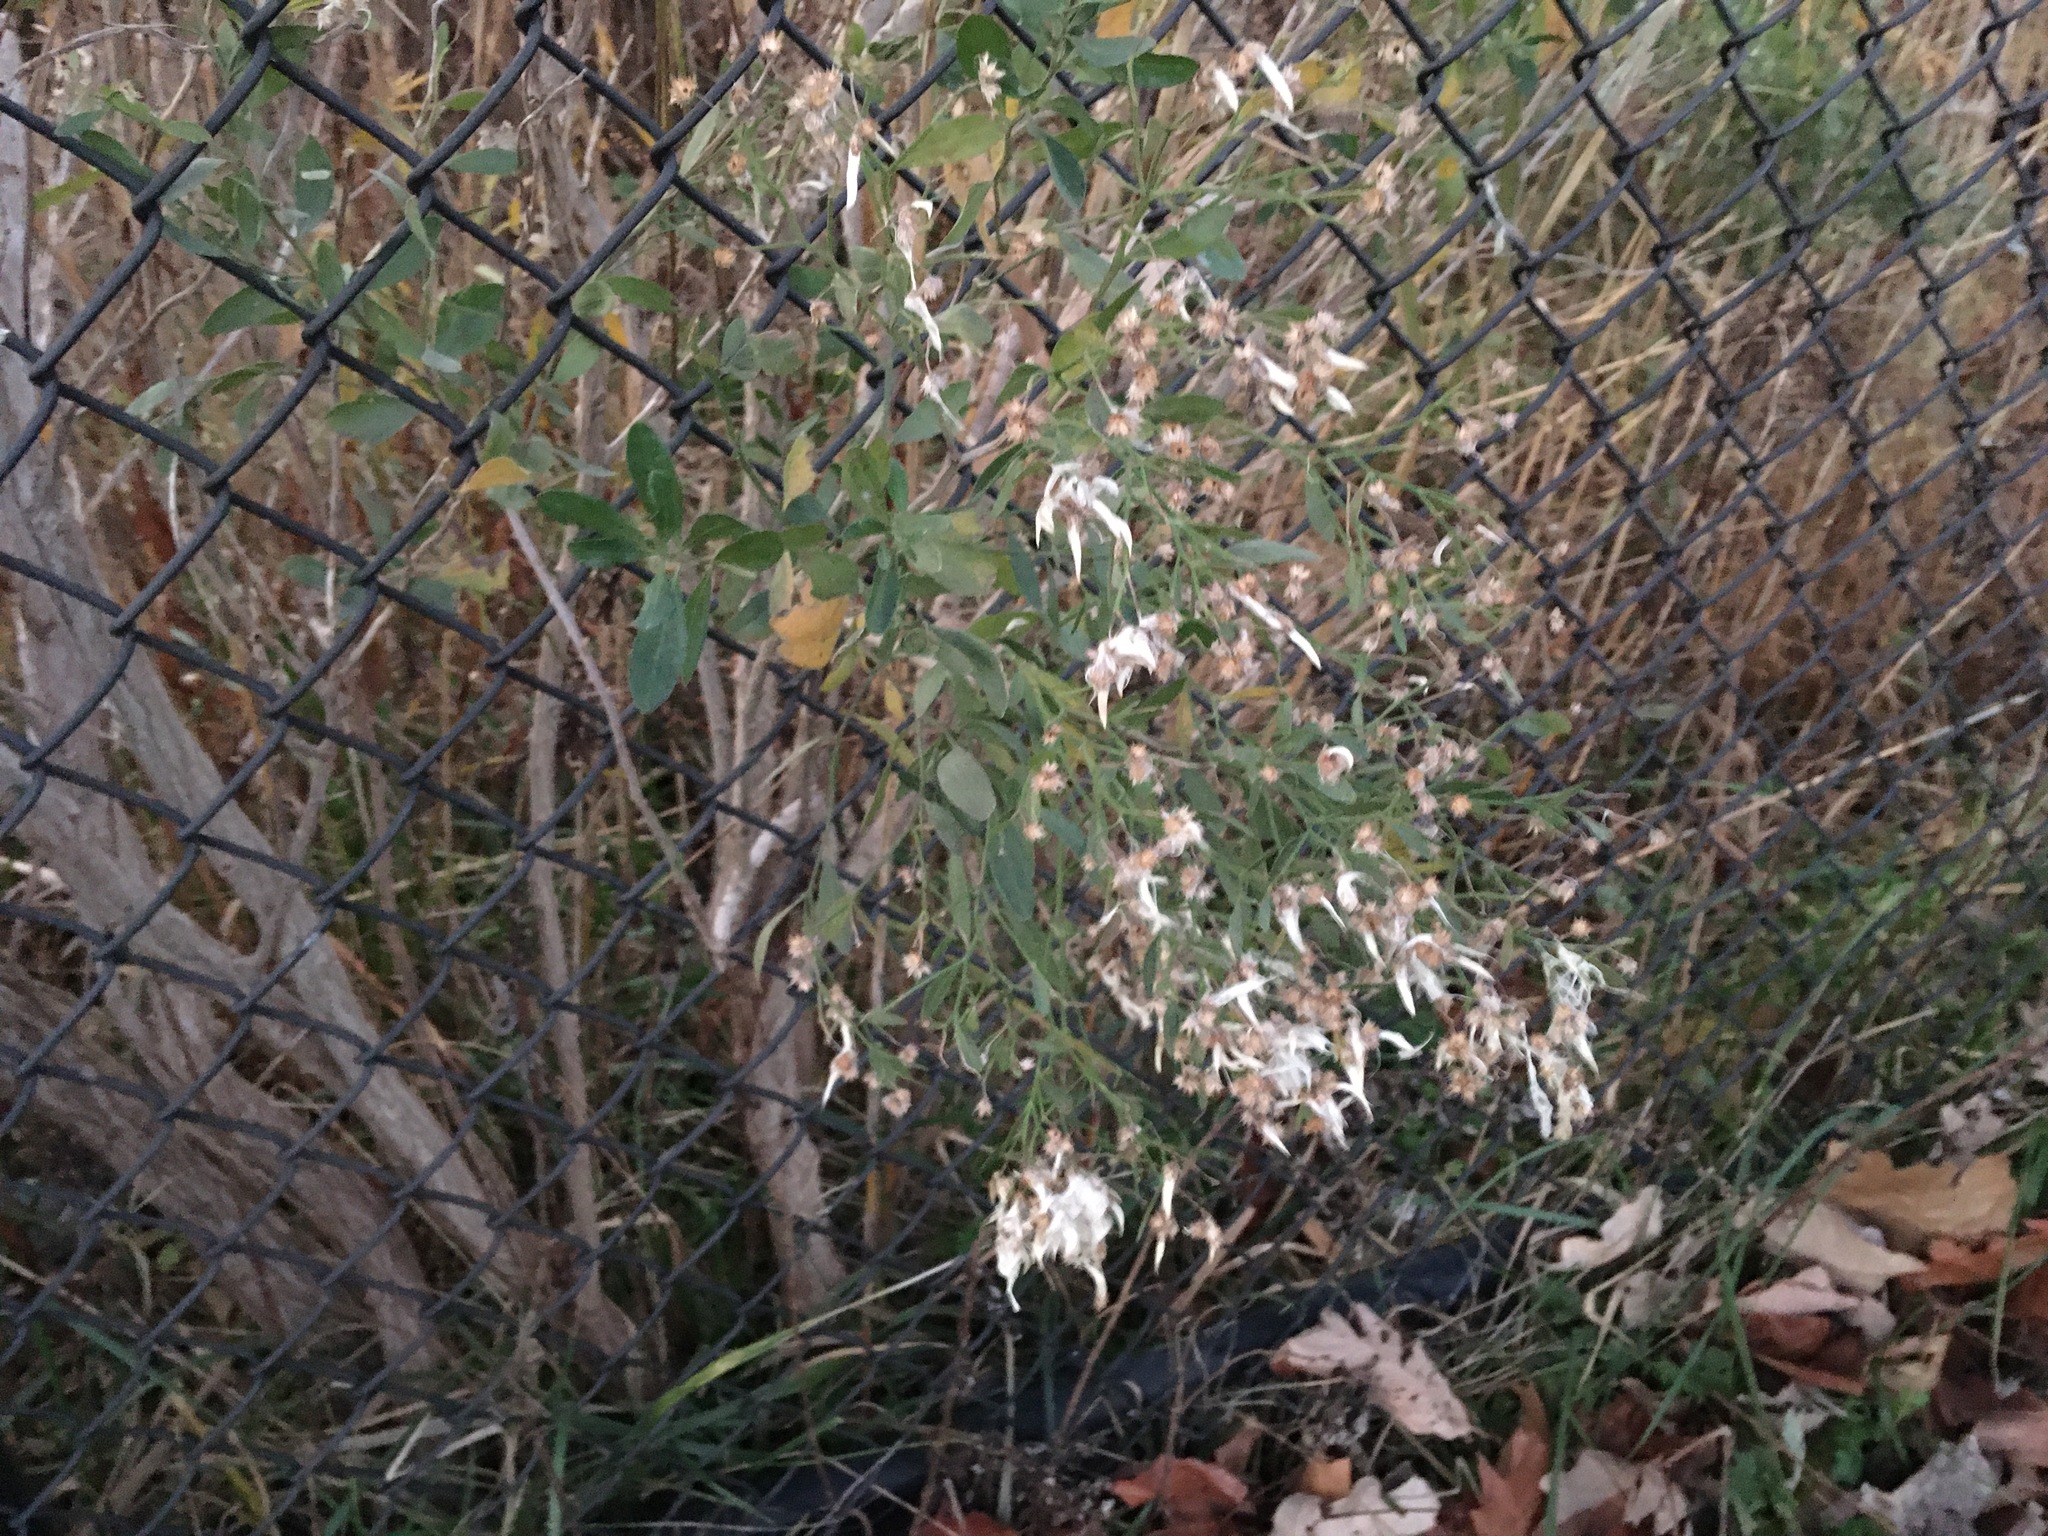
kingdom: Plantae
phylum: Tracheophyta
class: Magnoliopsida
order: Asterales
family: Asteraceae
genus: Baccharis
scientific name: Baccharis halimifolia
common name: Eastern baccharis
